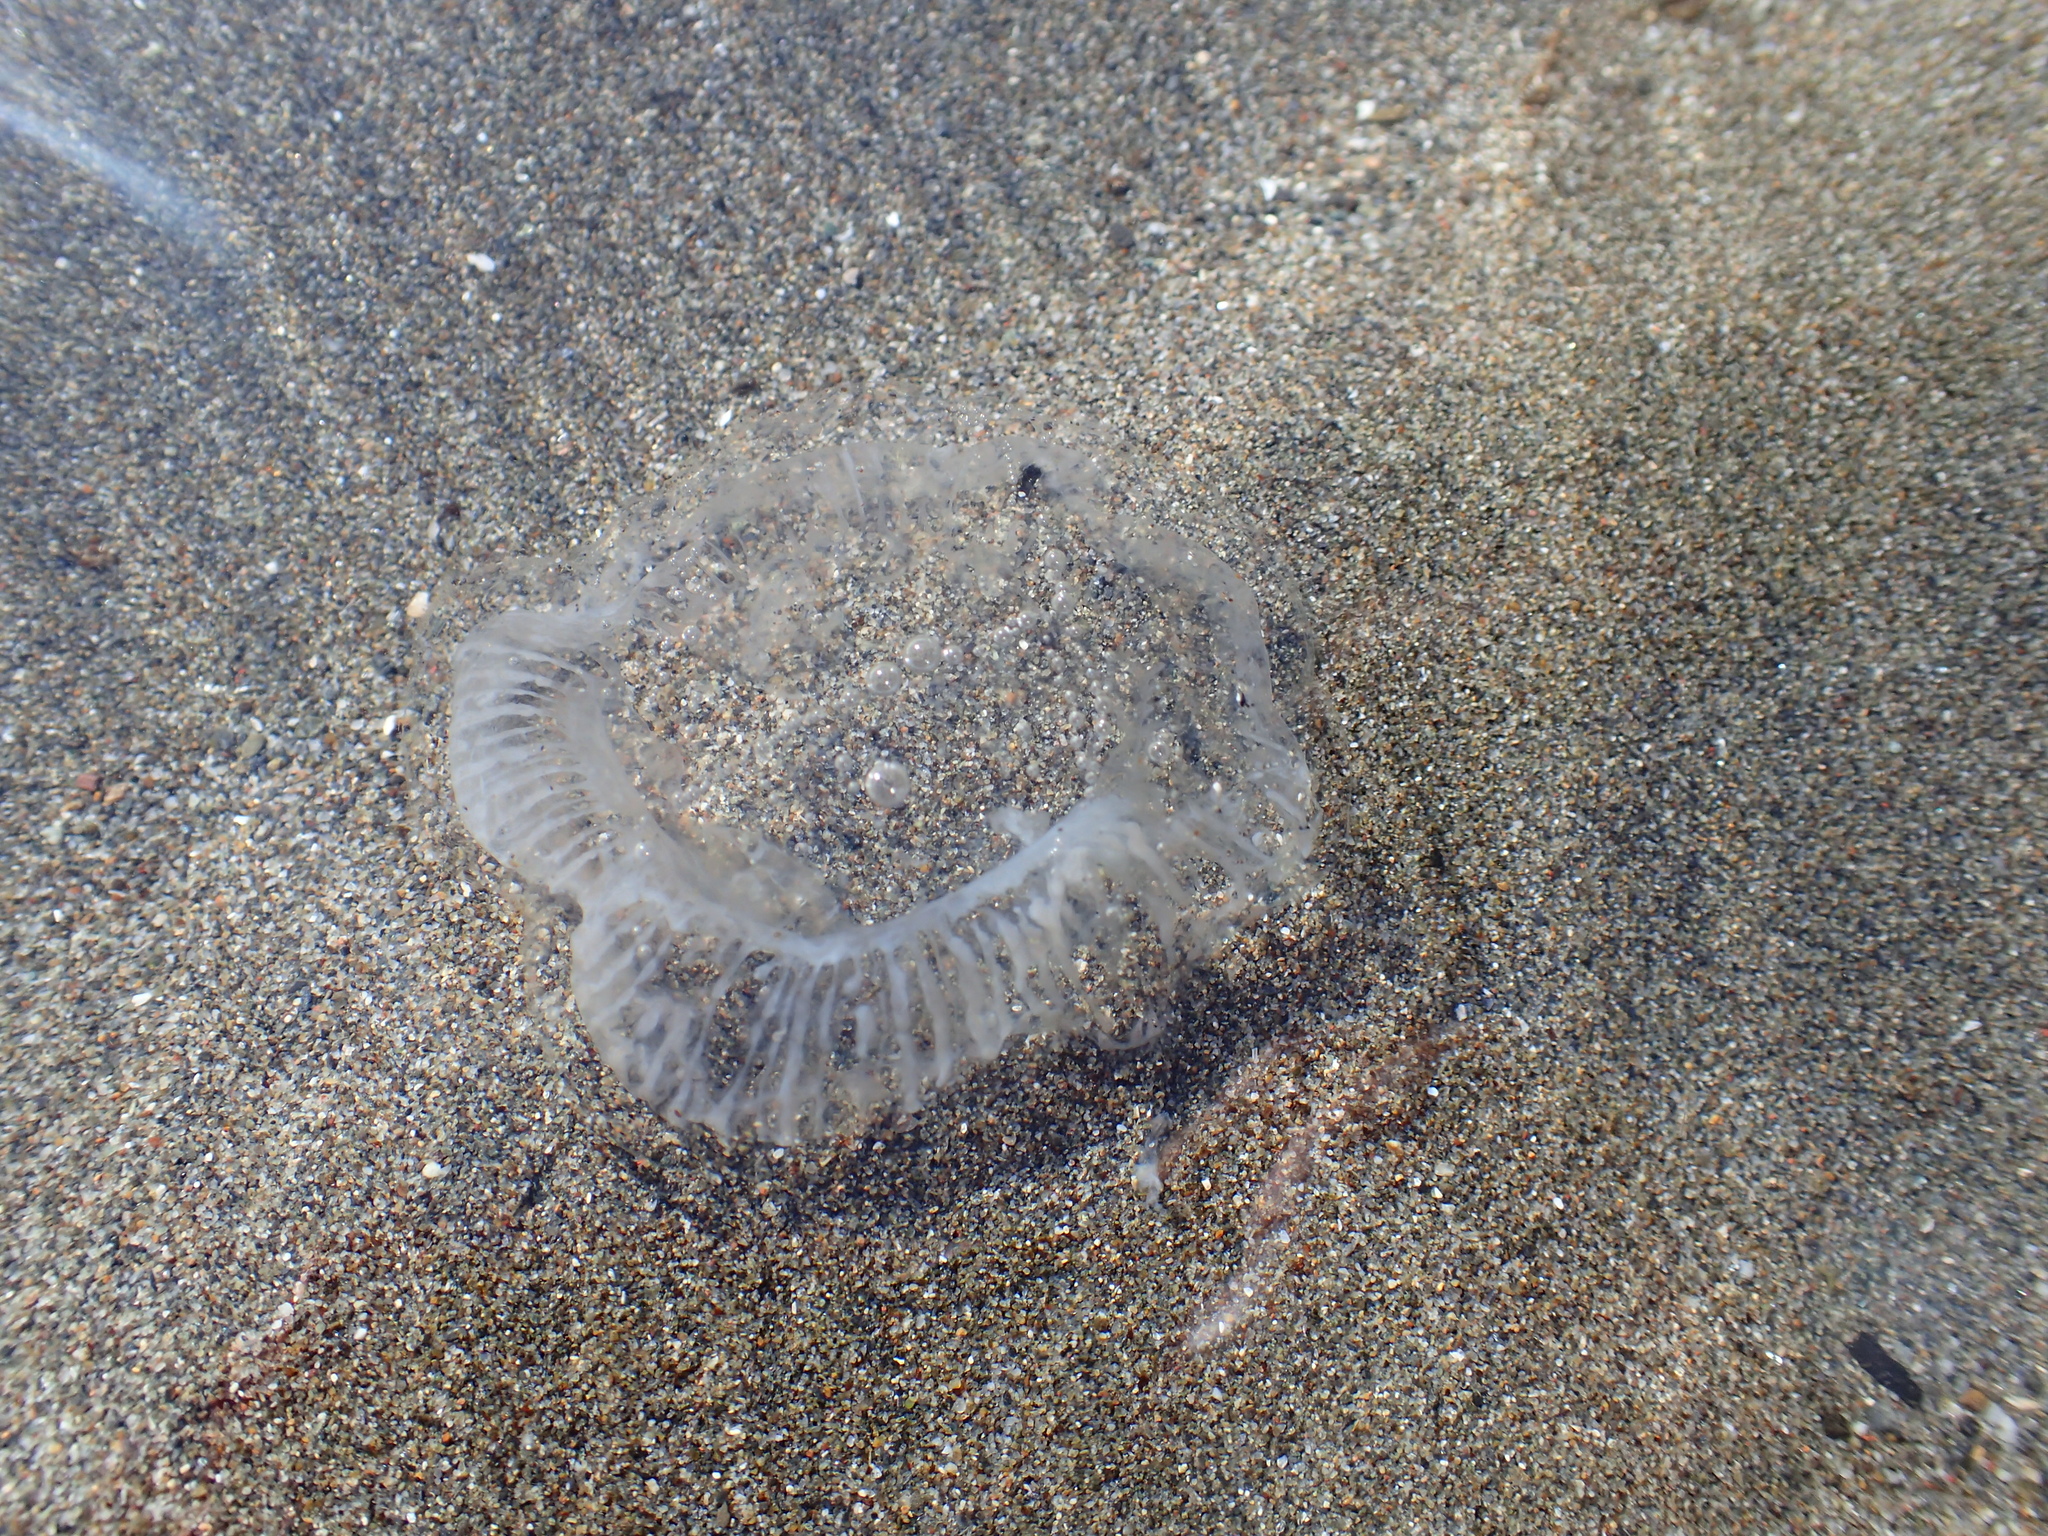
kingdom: Animalia
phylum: Cnidaria
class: Hydrozoa
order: Leptothecata
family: Aequoreidae
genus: Aequorea
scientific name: Aequorea victoria
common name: Water jellyfish
